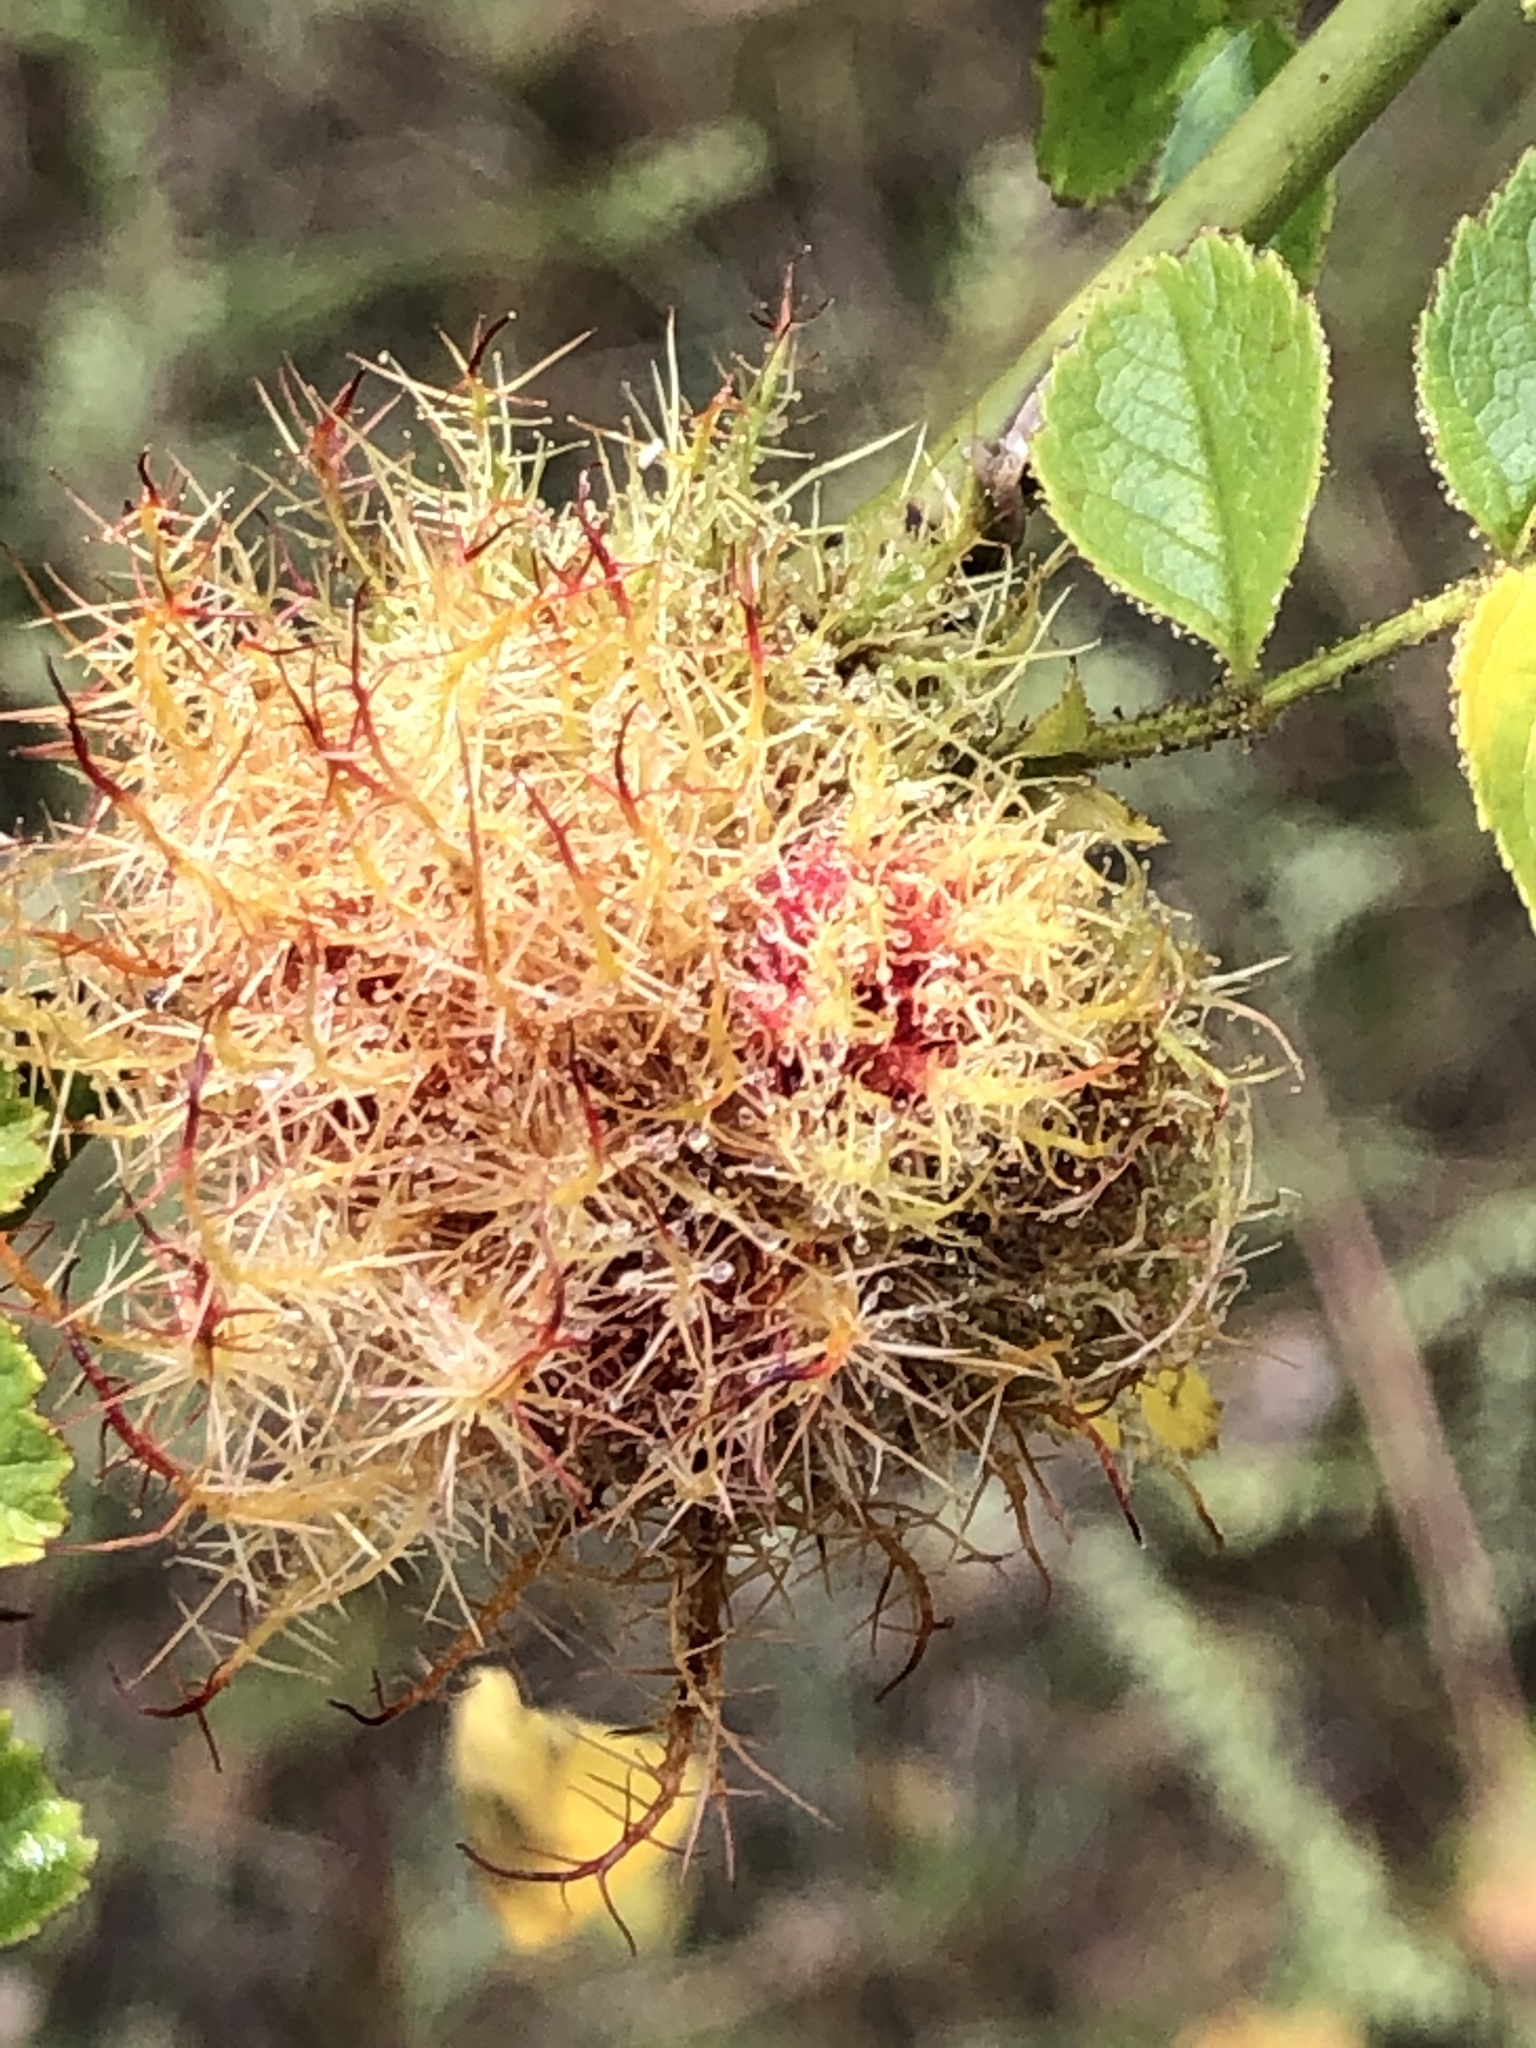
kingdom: Animalia
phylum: Arthropoda
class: Insecta
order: Hymenoptera
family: Cynipidae
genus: Diplolepis
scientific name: Diplolepis rosae
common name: Bedeguar gall
